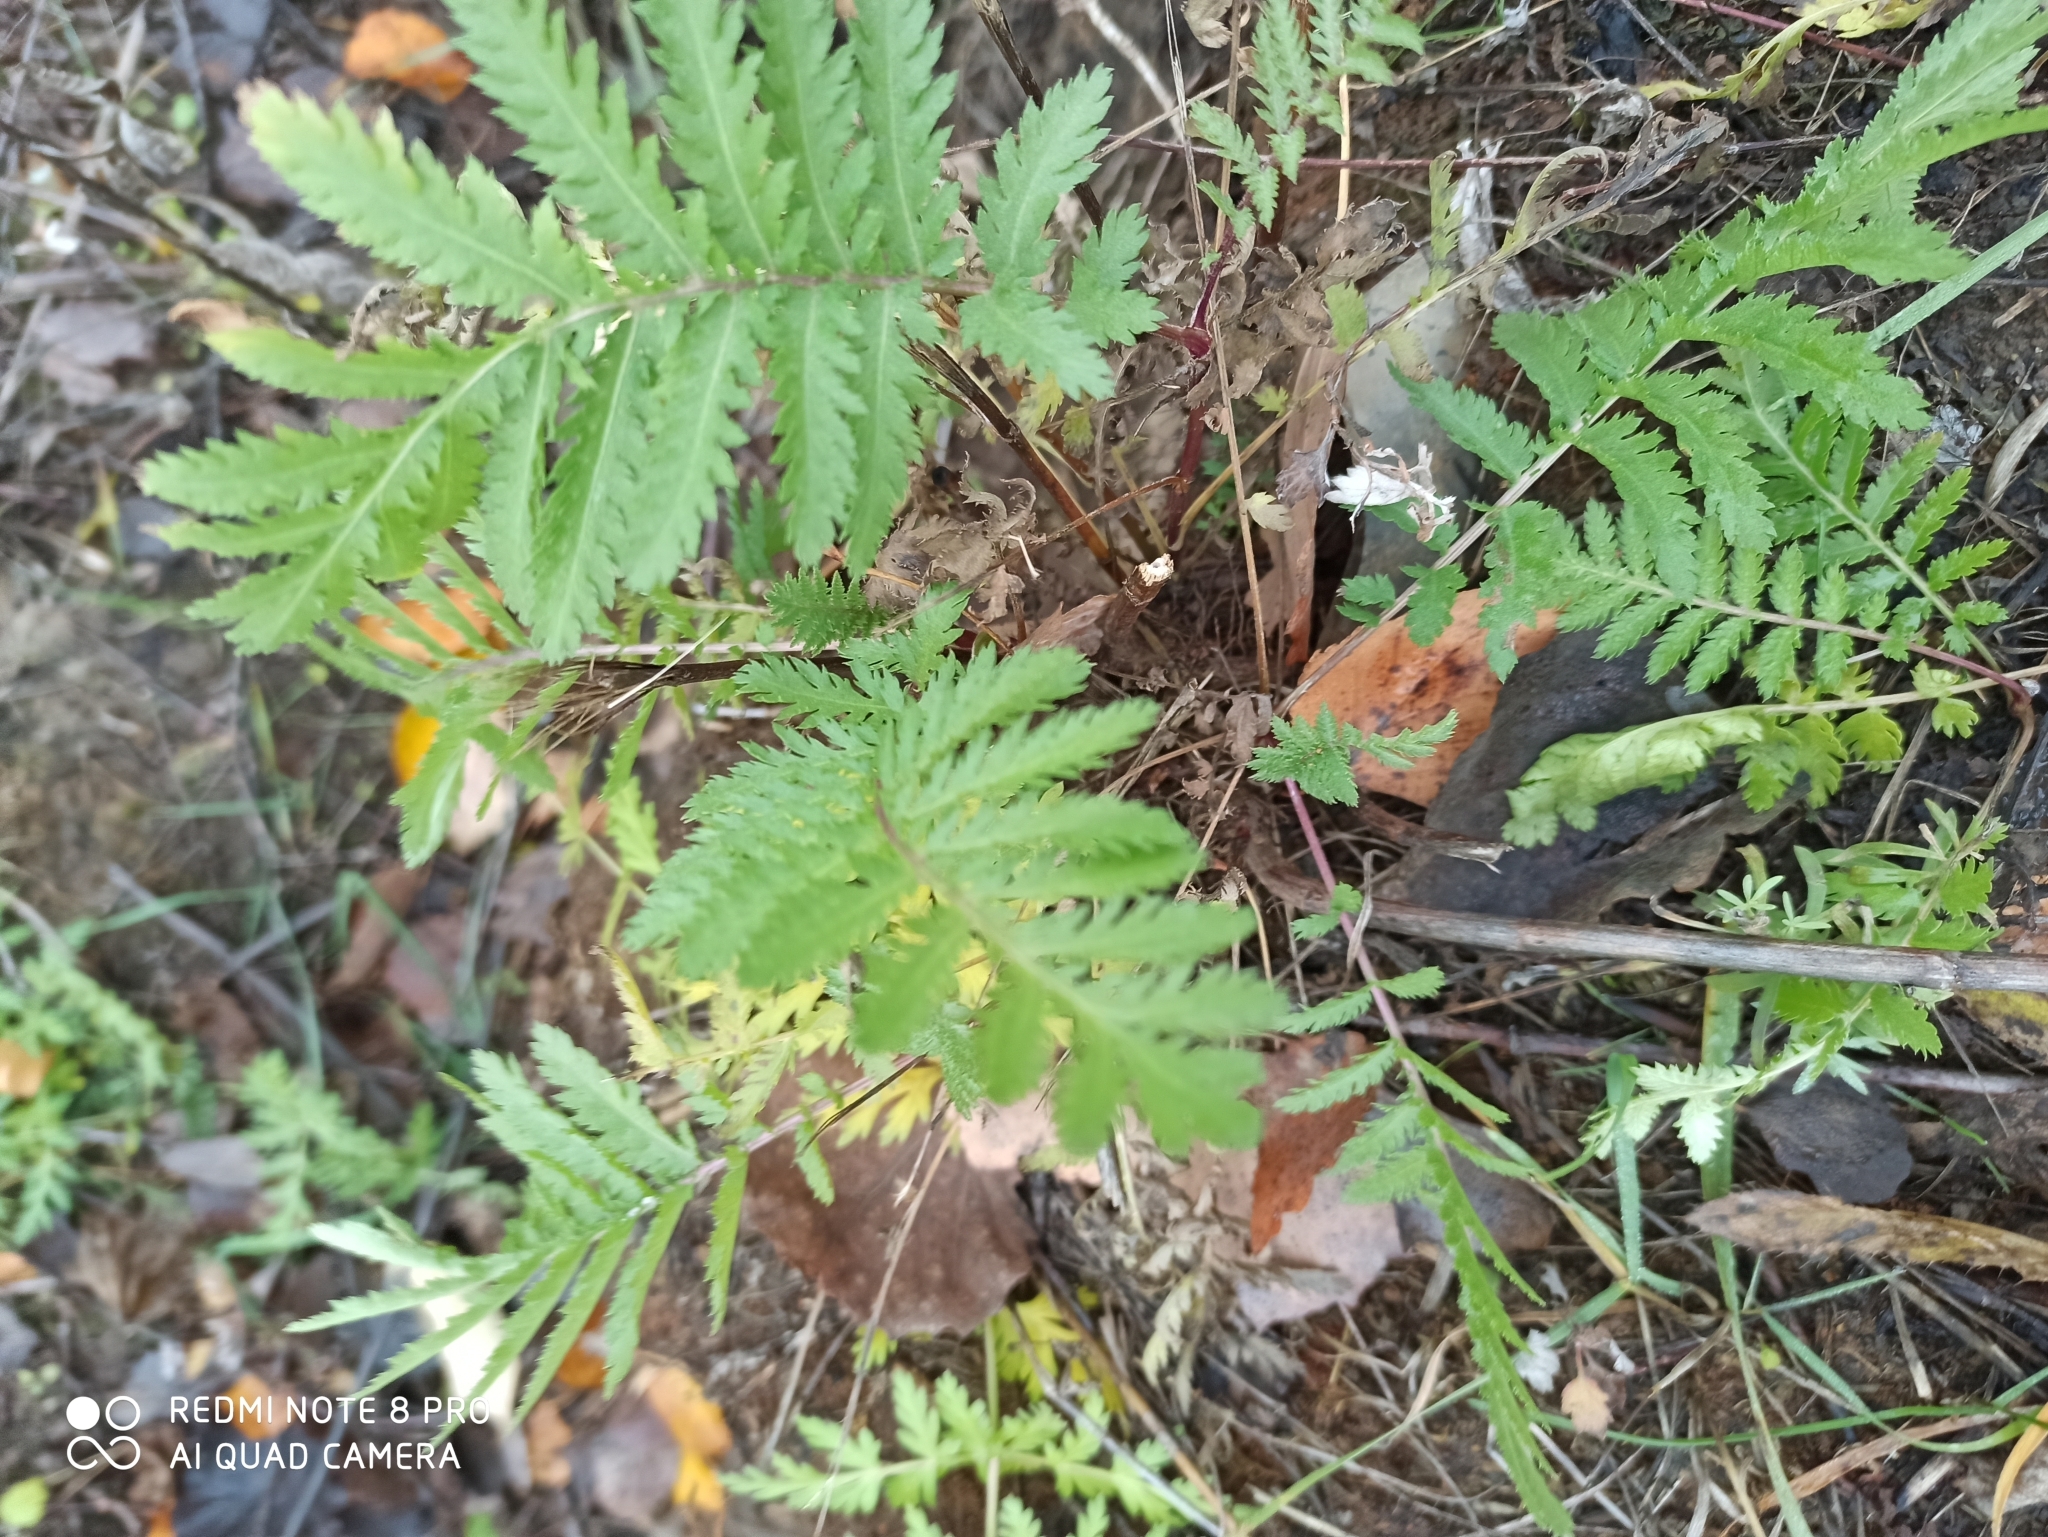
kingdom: Plantae
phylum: Tracheophyta
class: Magnoliopsida
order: Asterales
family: Asteraceae
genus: Tanacetum
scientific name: Tanacetum vulgare
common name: Common tansy
